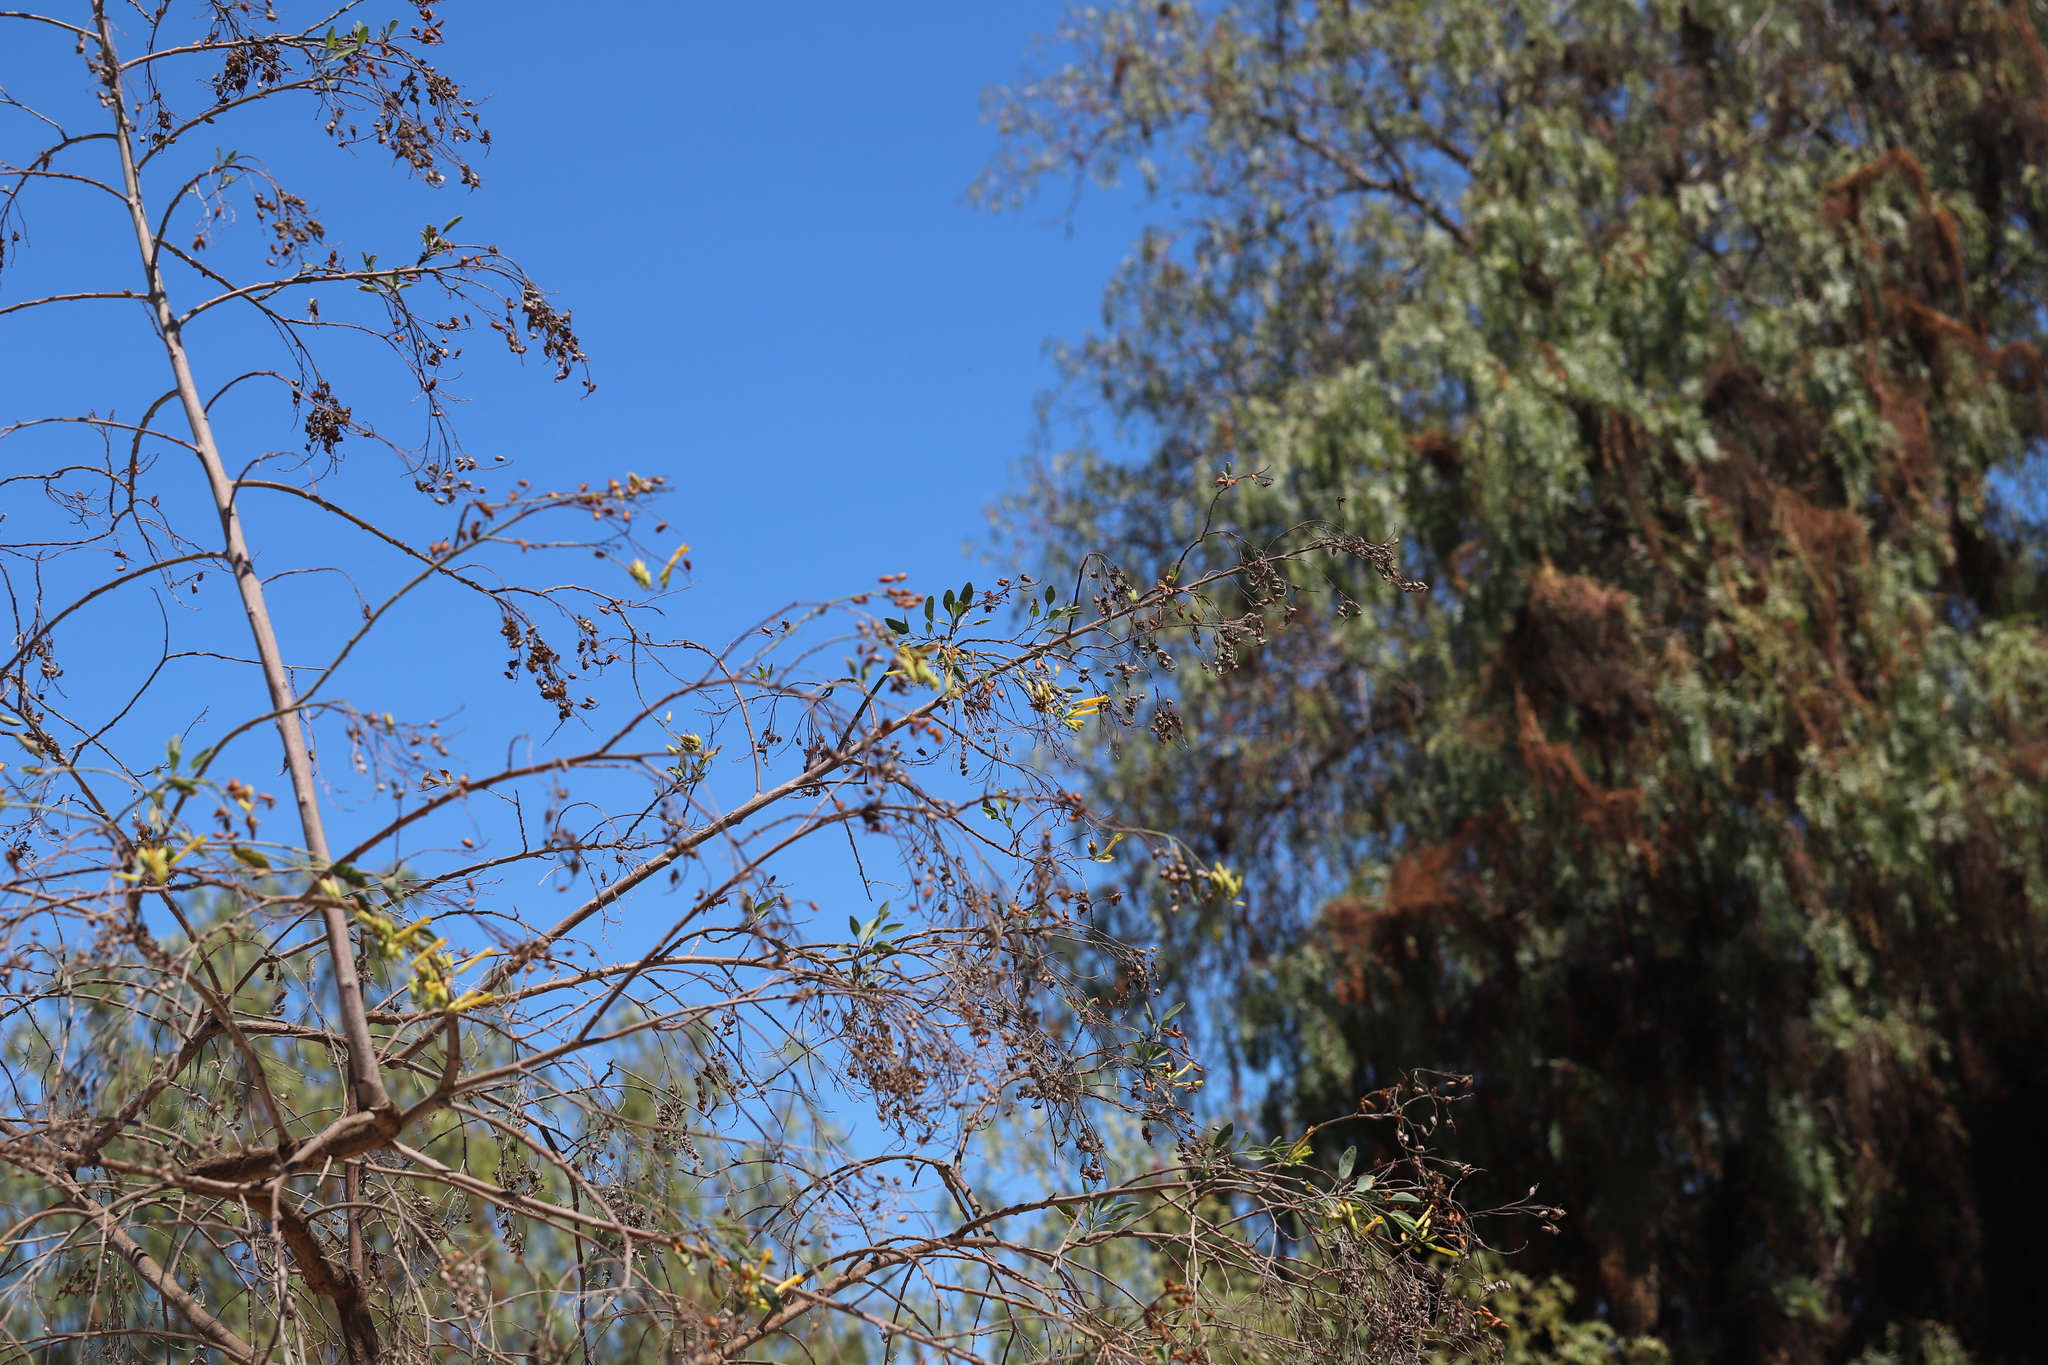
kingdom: Plantae
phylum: Tracheophyta
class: Magnoliopsida
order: Solanales
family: Solanaceae
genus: Nicotiana
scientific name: Nicotiana glauca
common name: Tree tobacco
